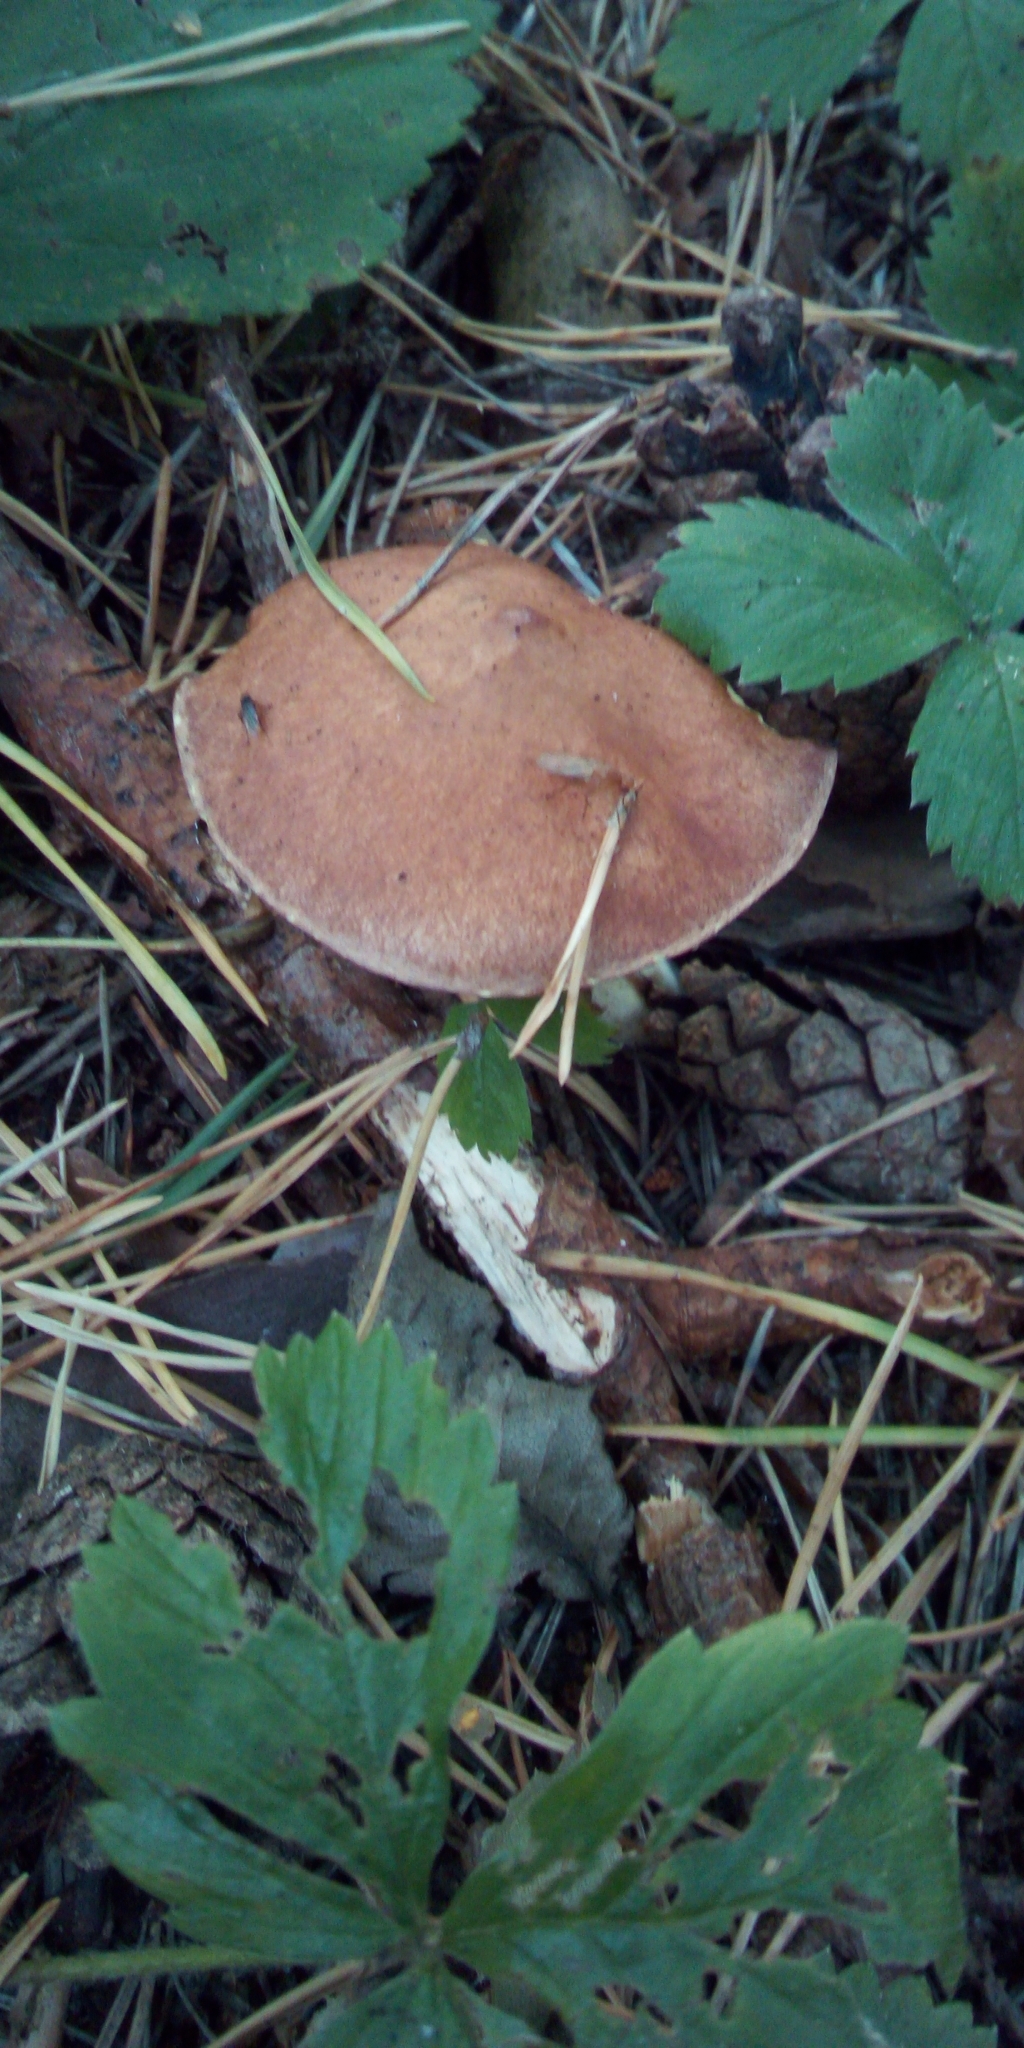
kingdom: Fungi
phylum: Basidiomycota
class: Agaricomycetes
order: Boletales
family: Suillaceae
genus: Suillus
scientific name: Suillus granulatus
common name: Weeping bolete
